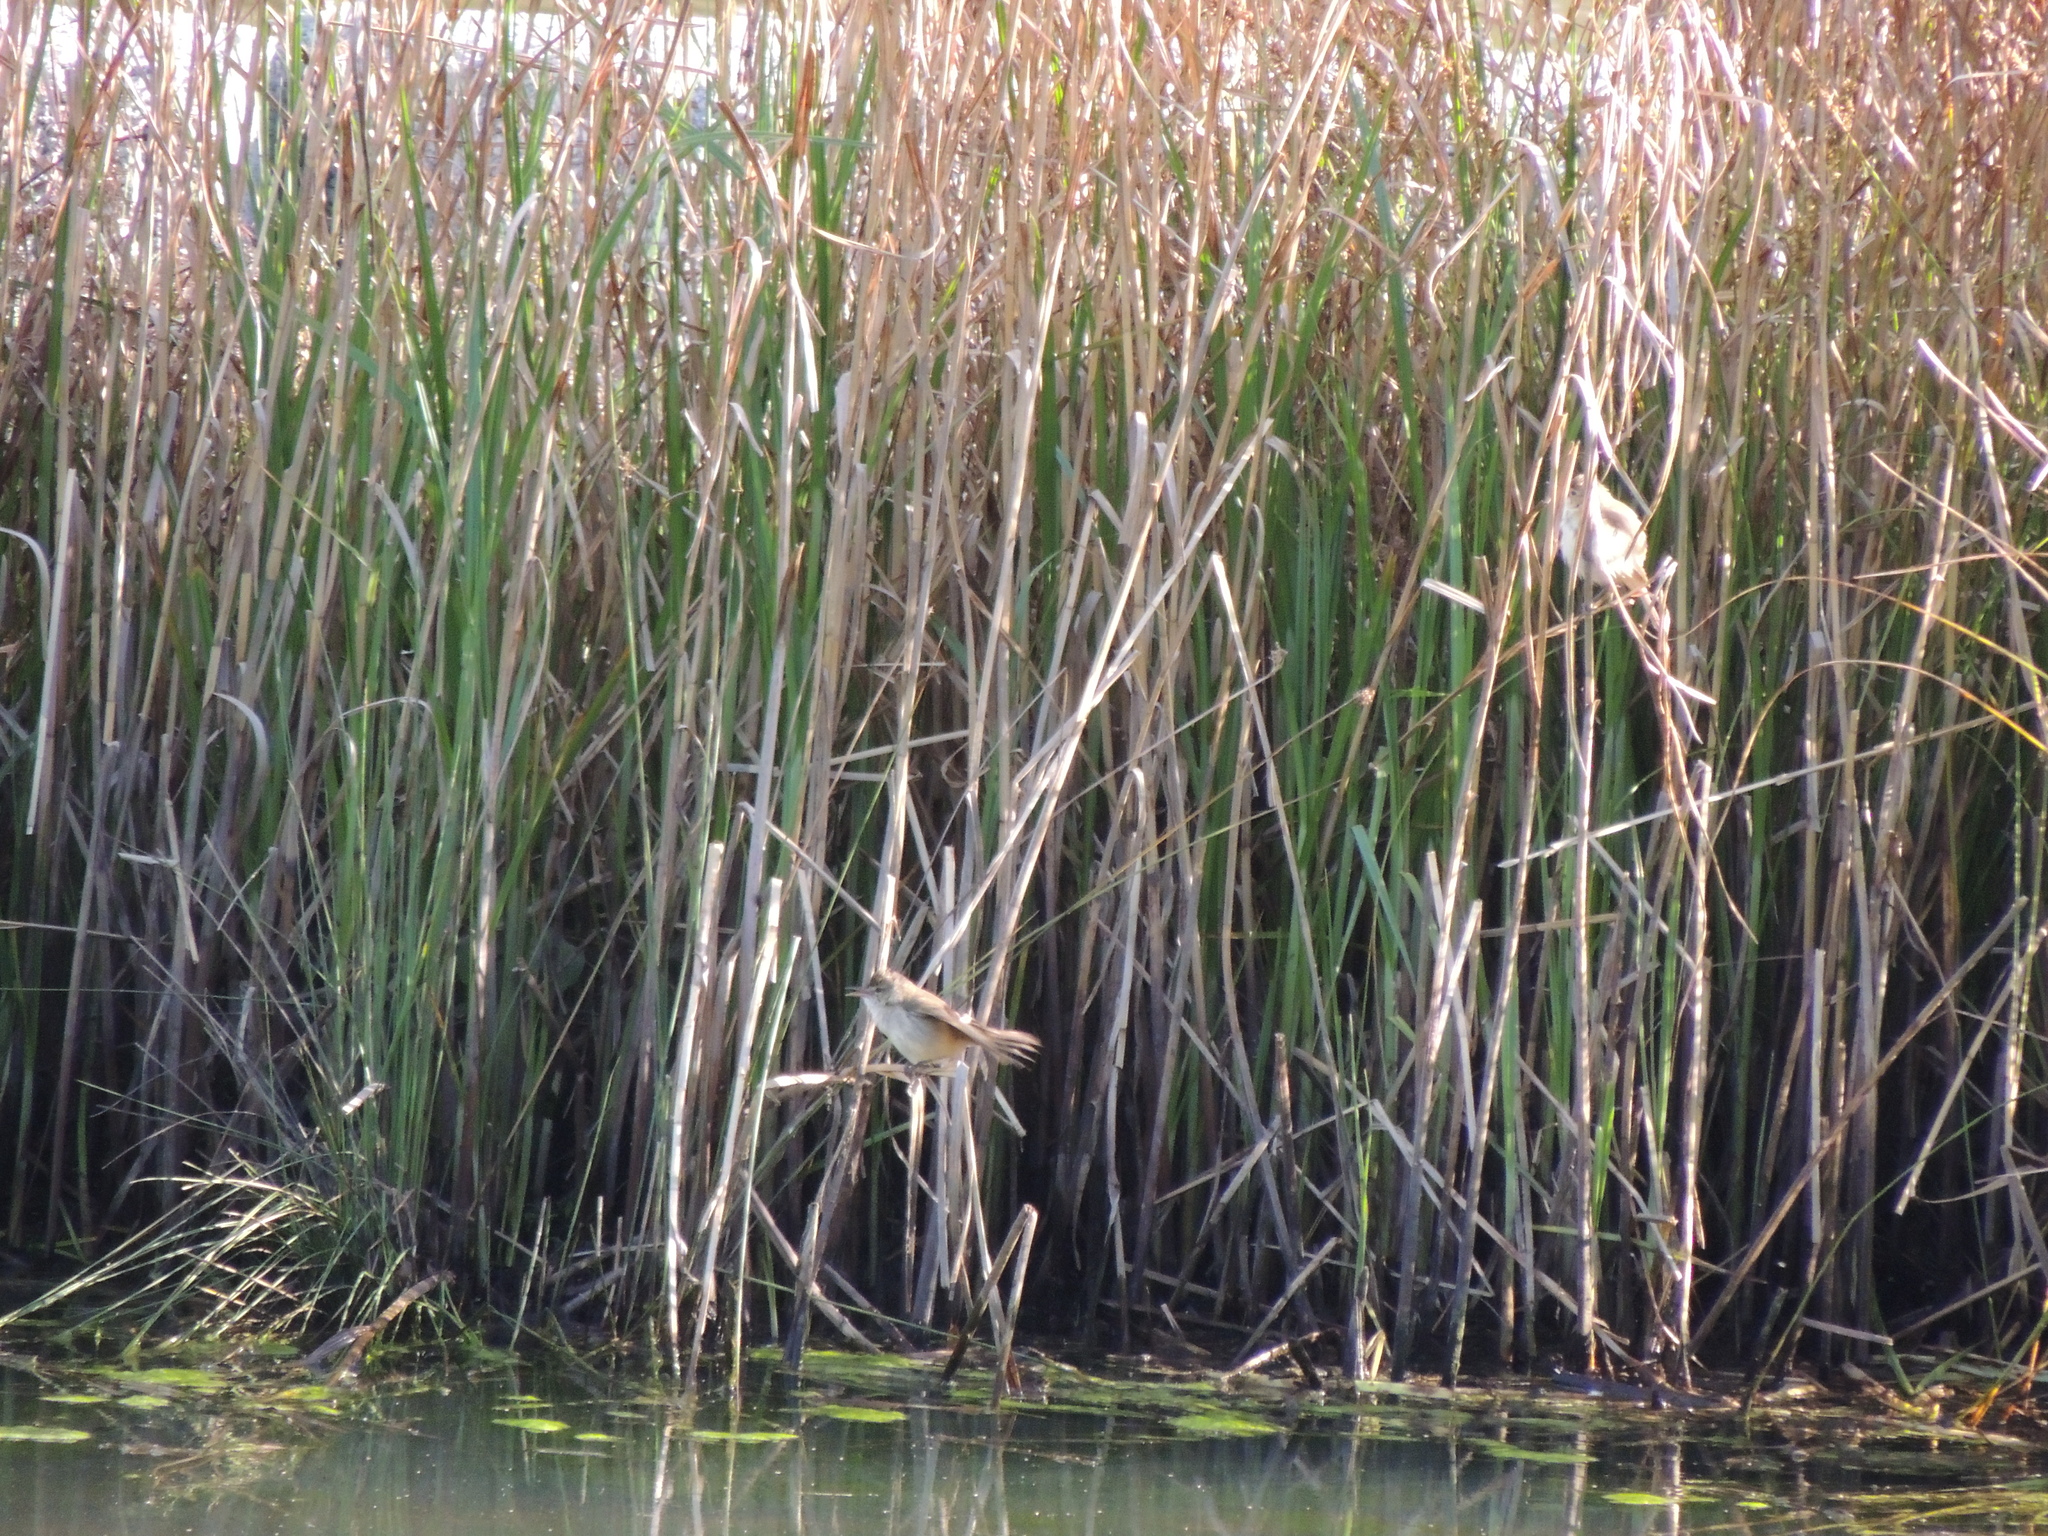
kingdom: Animalia
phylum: Chordata
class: Aves
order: Passeriformes
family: Acrocephalidae
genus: Acrocephalus
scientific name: Acrocephalus australis
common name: Australian reed warbler
